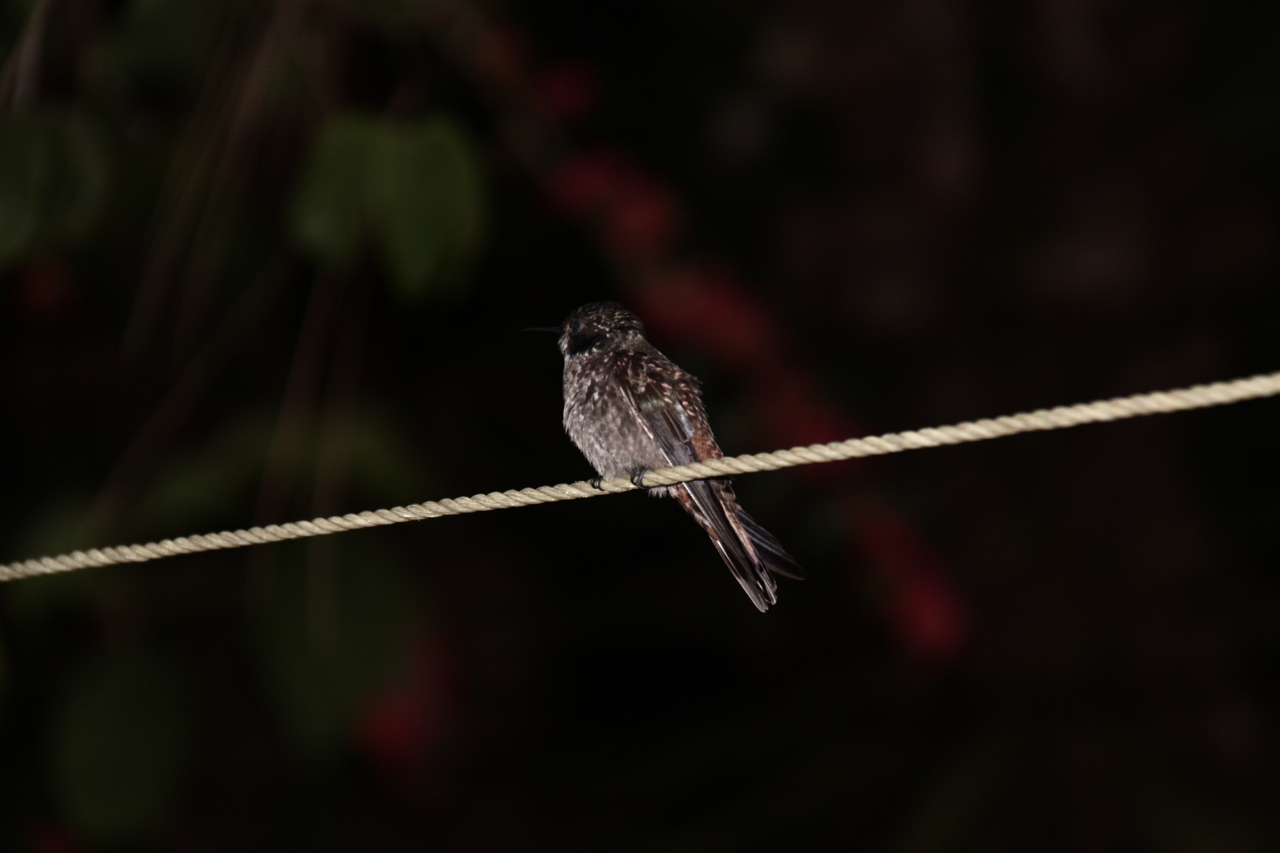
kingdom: Animalia
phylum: Chordata
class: Aves
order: Apodiformes
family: Trochilidae
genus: Colibri
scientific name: Colibri delphinae
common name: Brown violetear
